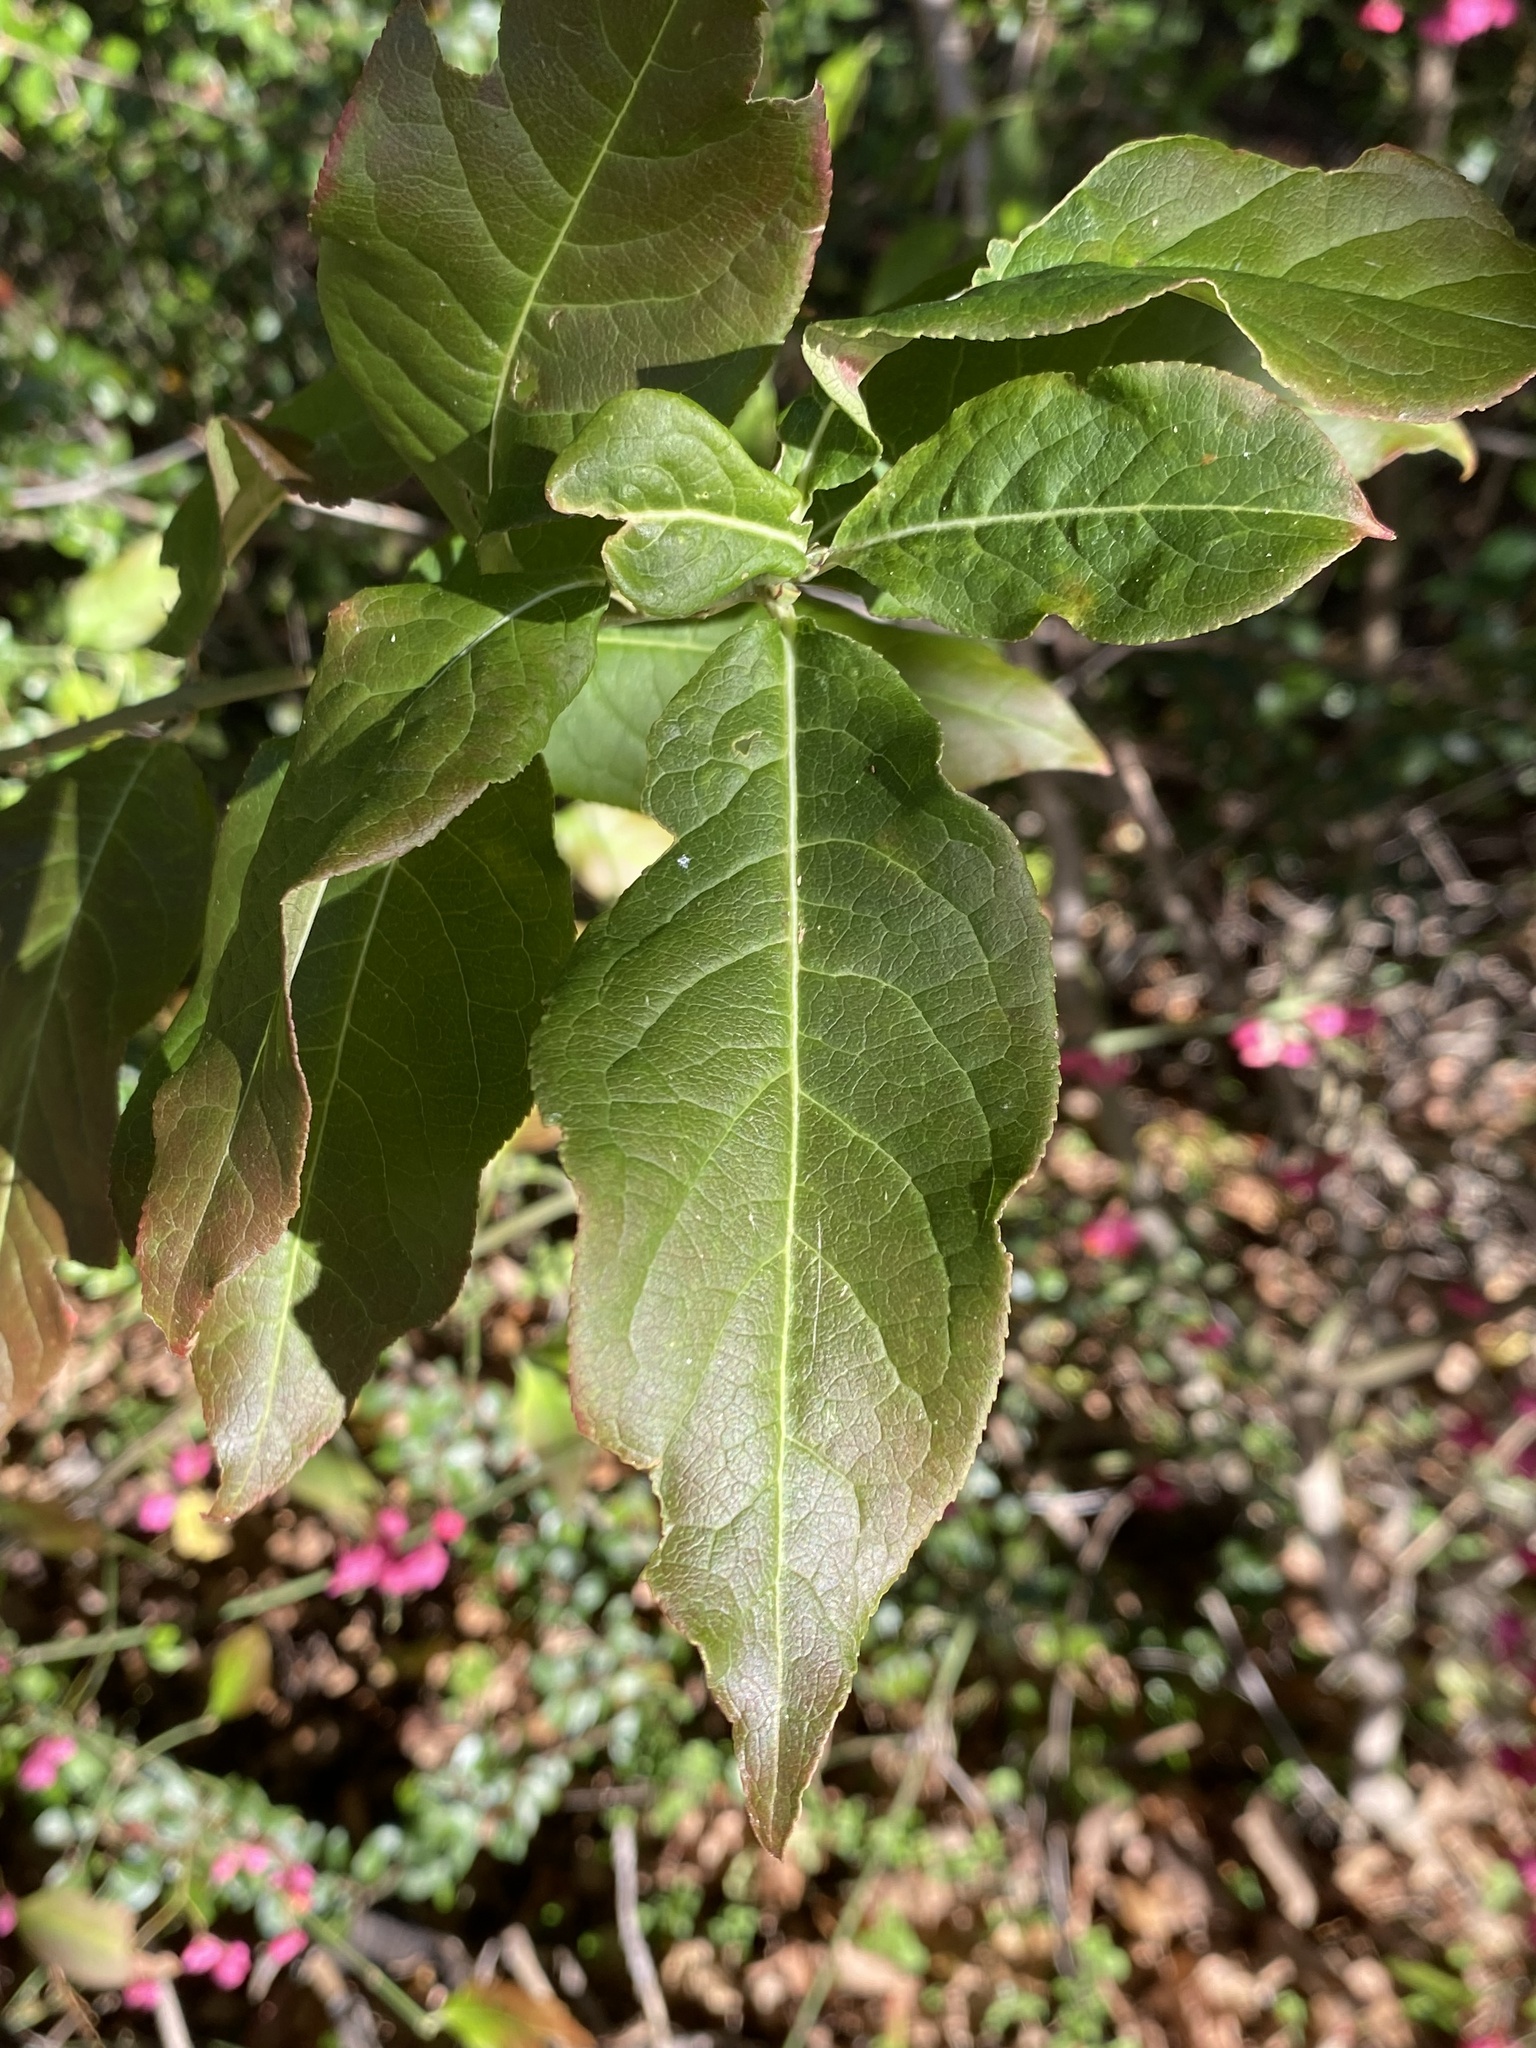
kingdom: Plantae
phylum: Tracheophyta
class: Magnoliopsida
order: Celastrales
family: Celastraceae
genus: Euonymus
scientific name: Euonymus europaeus
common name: Spindle
